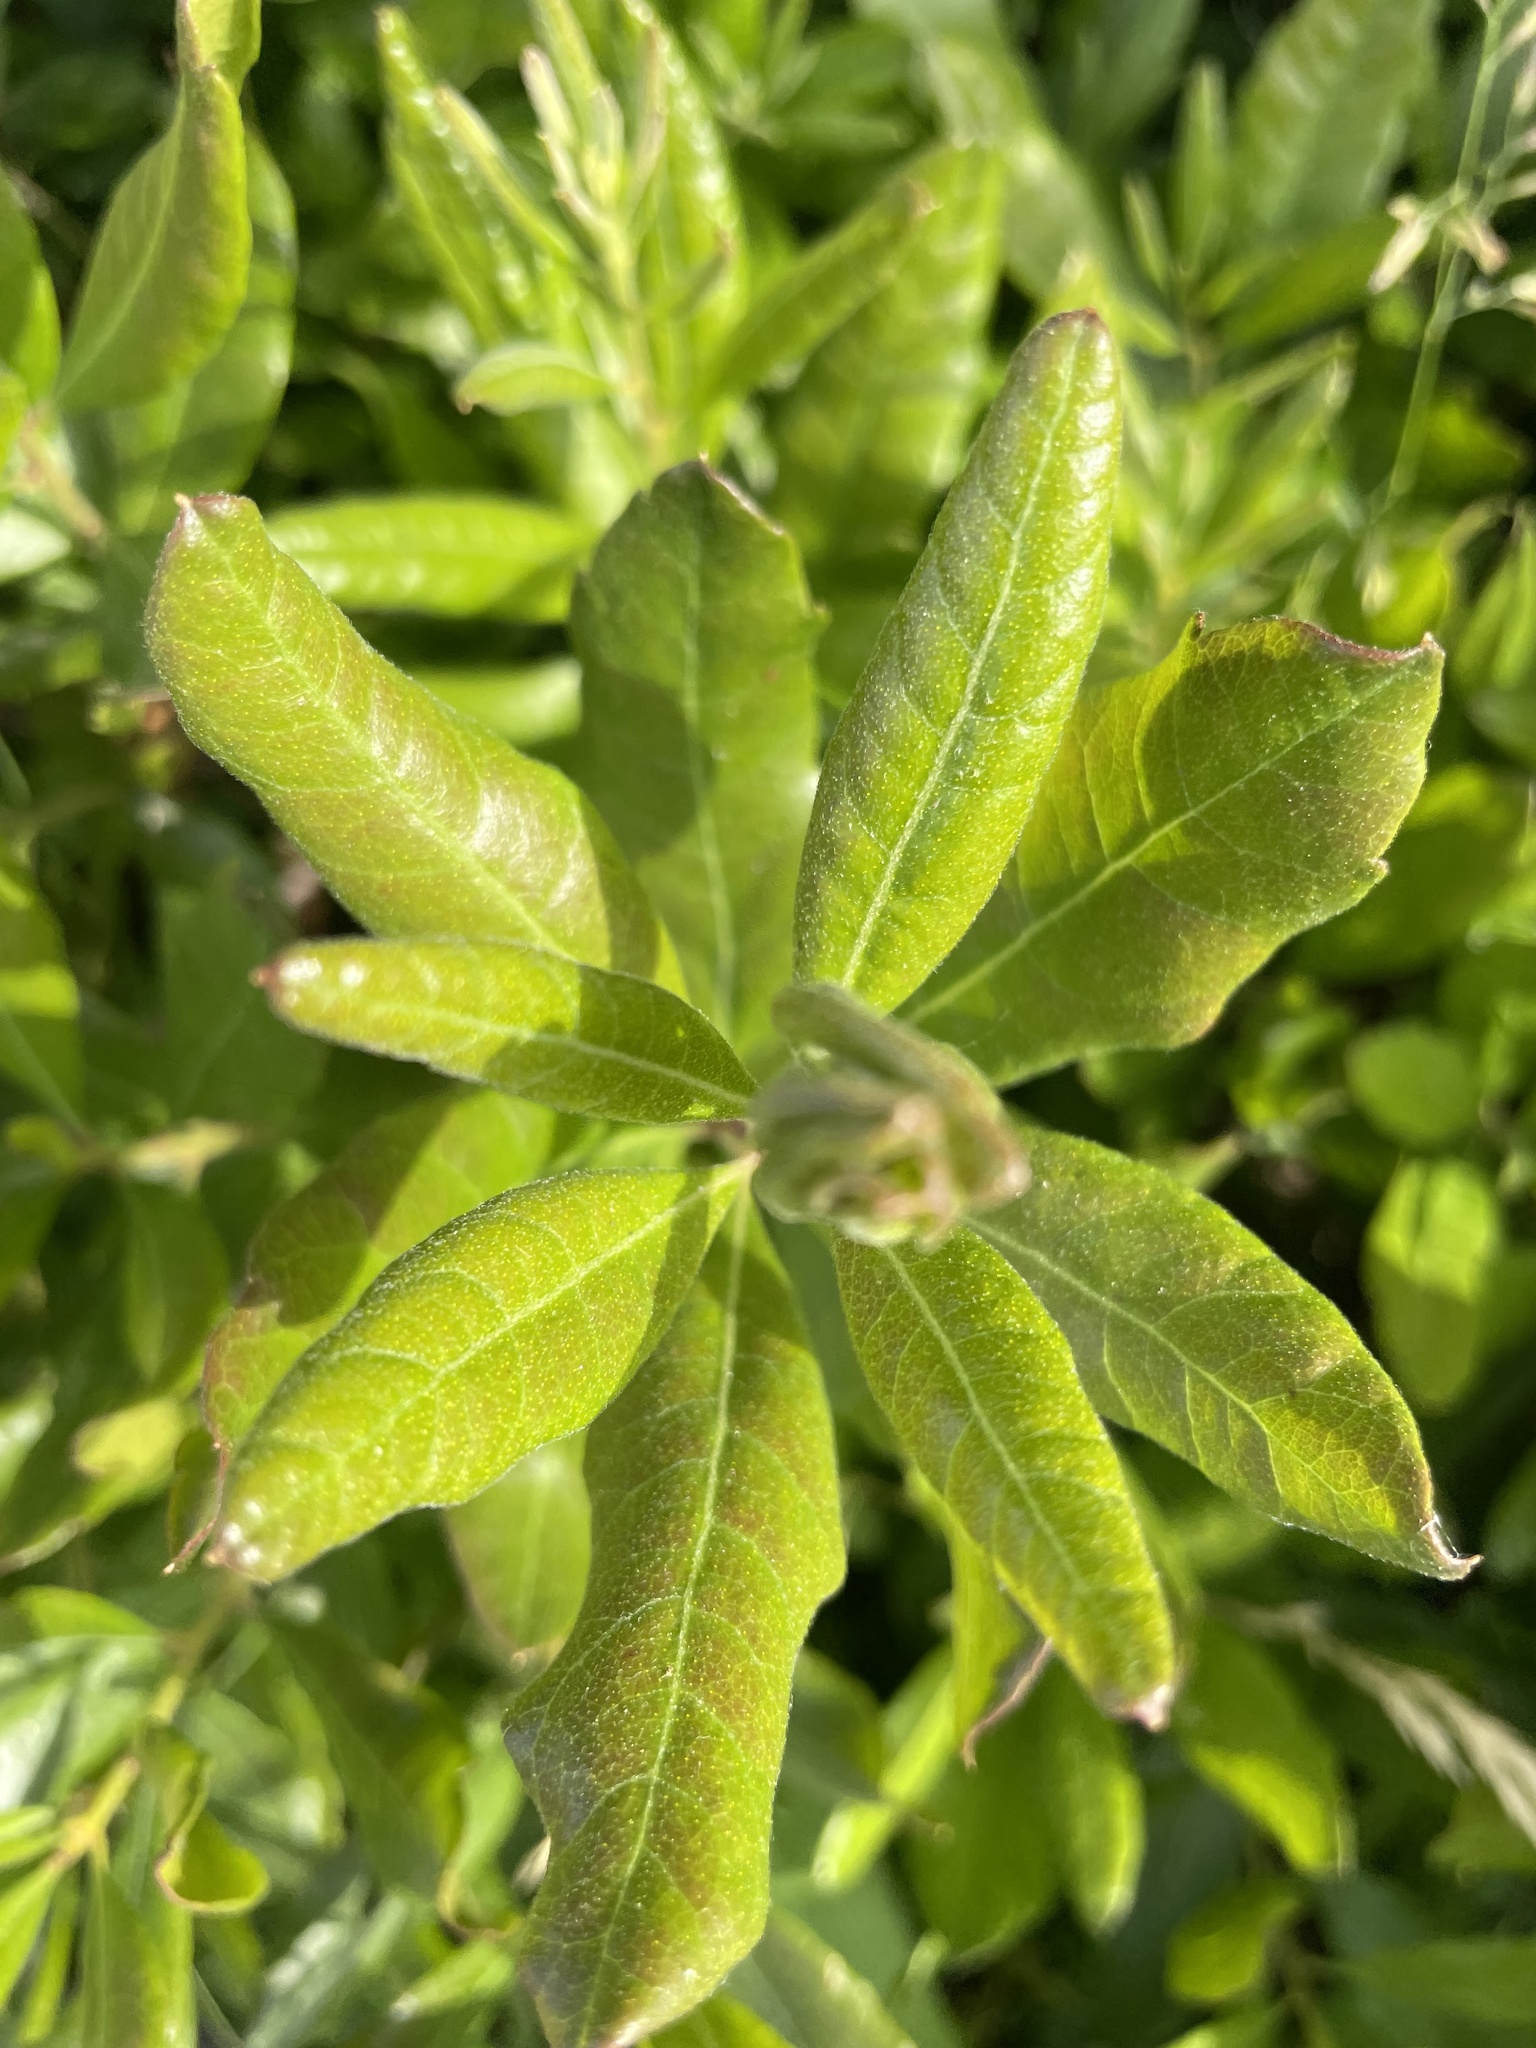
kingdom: Plantae
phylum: Tracheophyta
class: Magnoliopsida
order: Fagales
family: Myricaceae
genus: Morella
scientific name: Morella pensylvanica
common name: Northern bayberry
